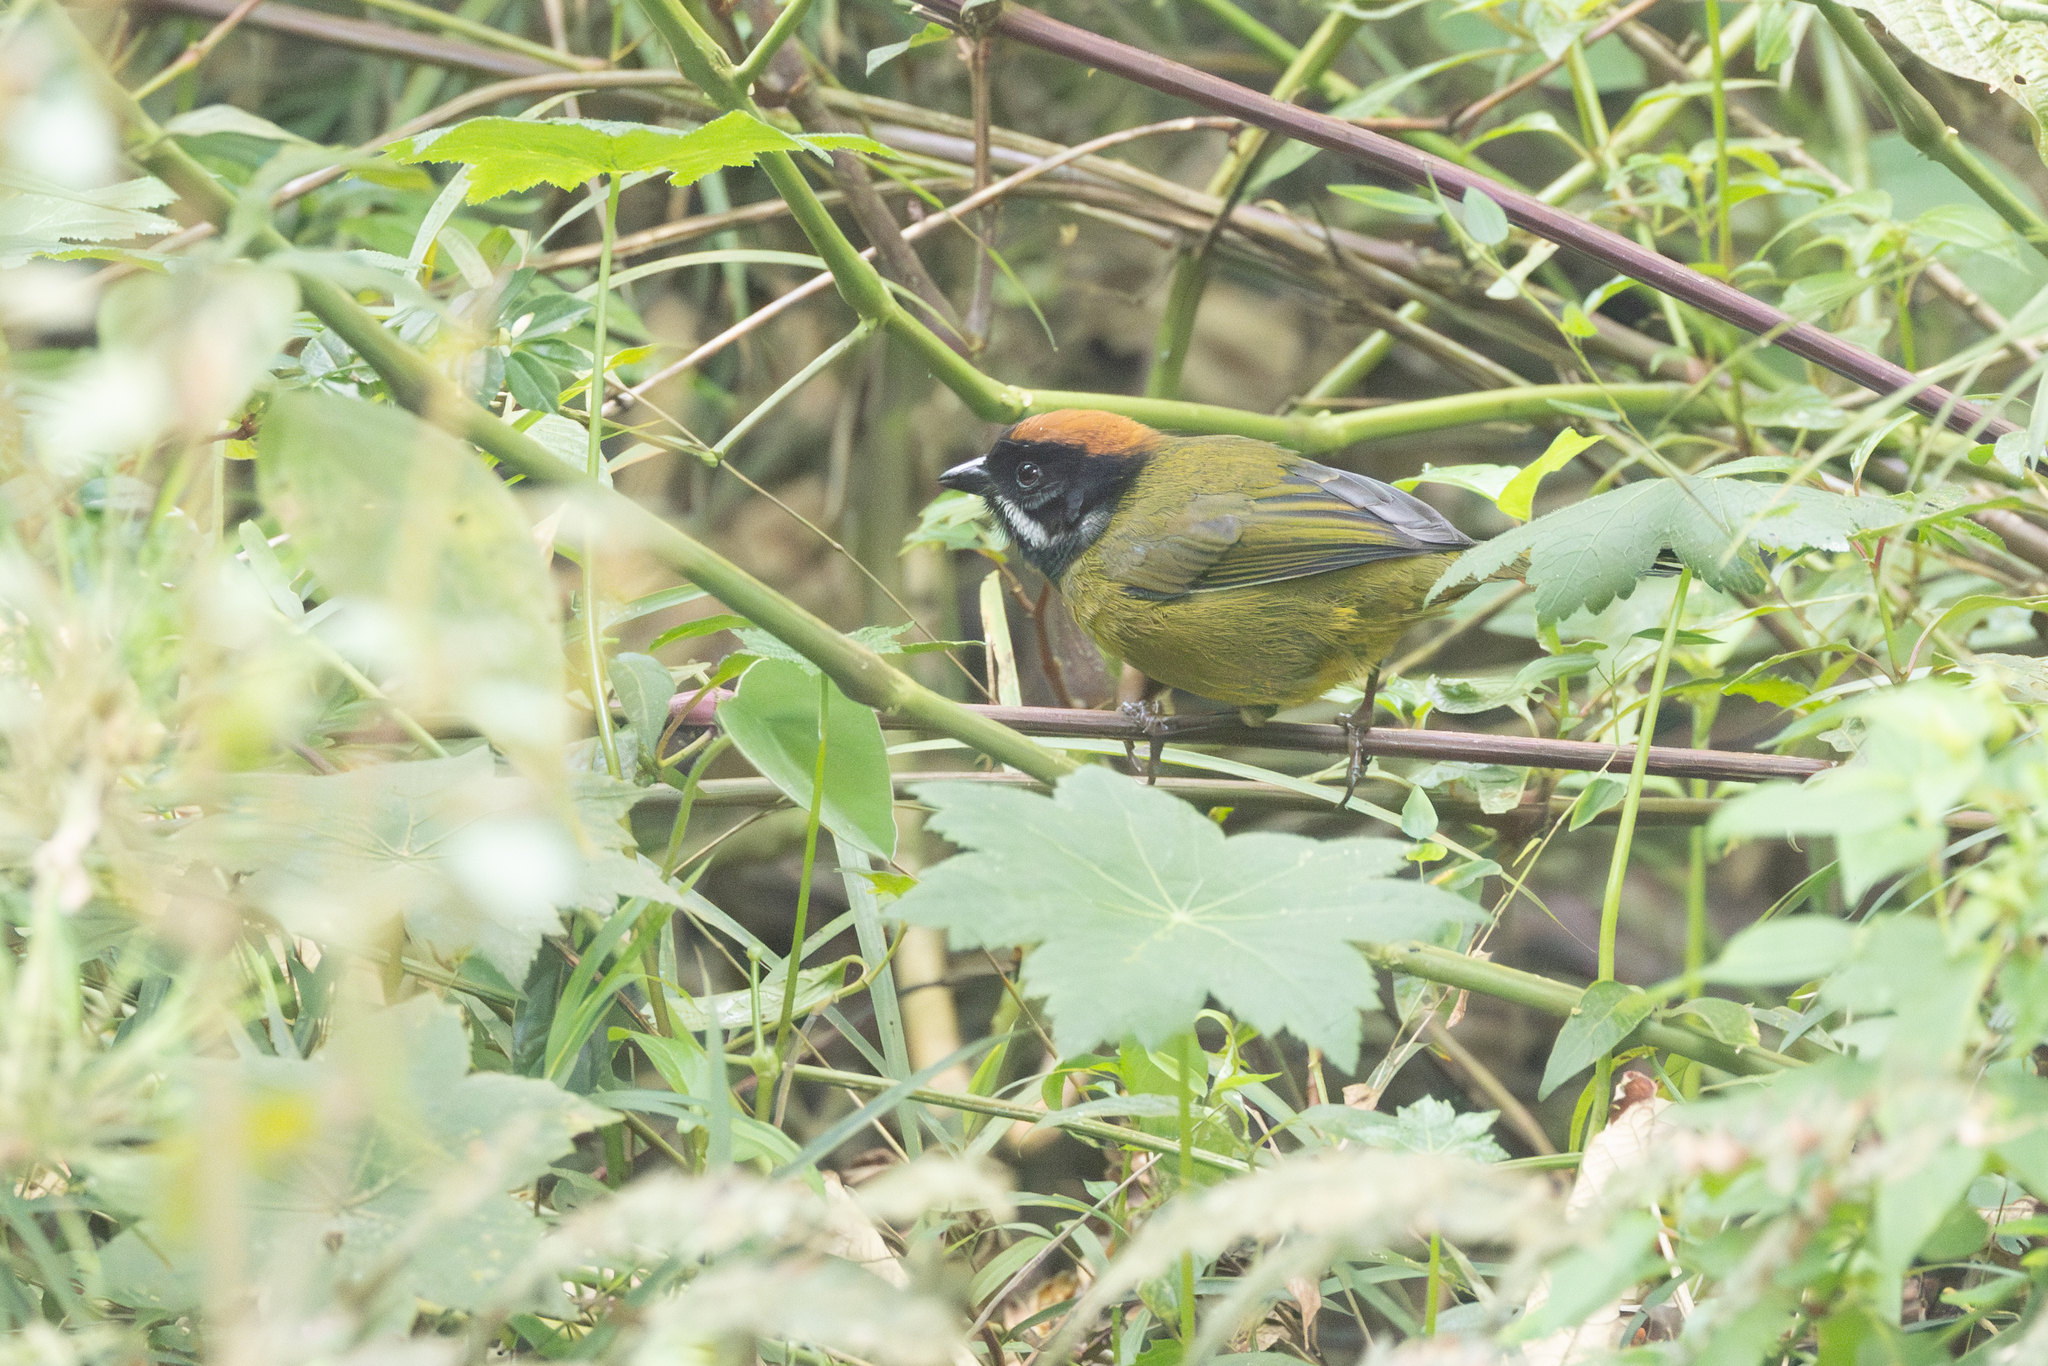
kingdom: Animalia
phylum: Chordata
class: Aves
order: Passeriformes
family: Passerellidae
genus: Atlapetes
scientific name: Atlapetes albofrenatus
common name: Moustached brushfinch
